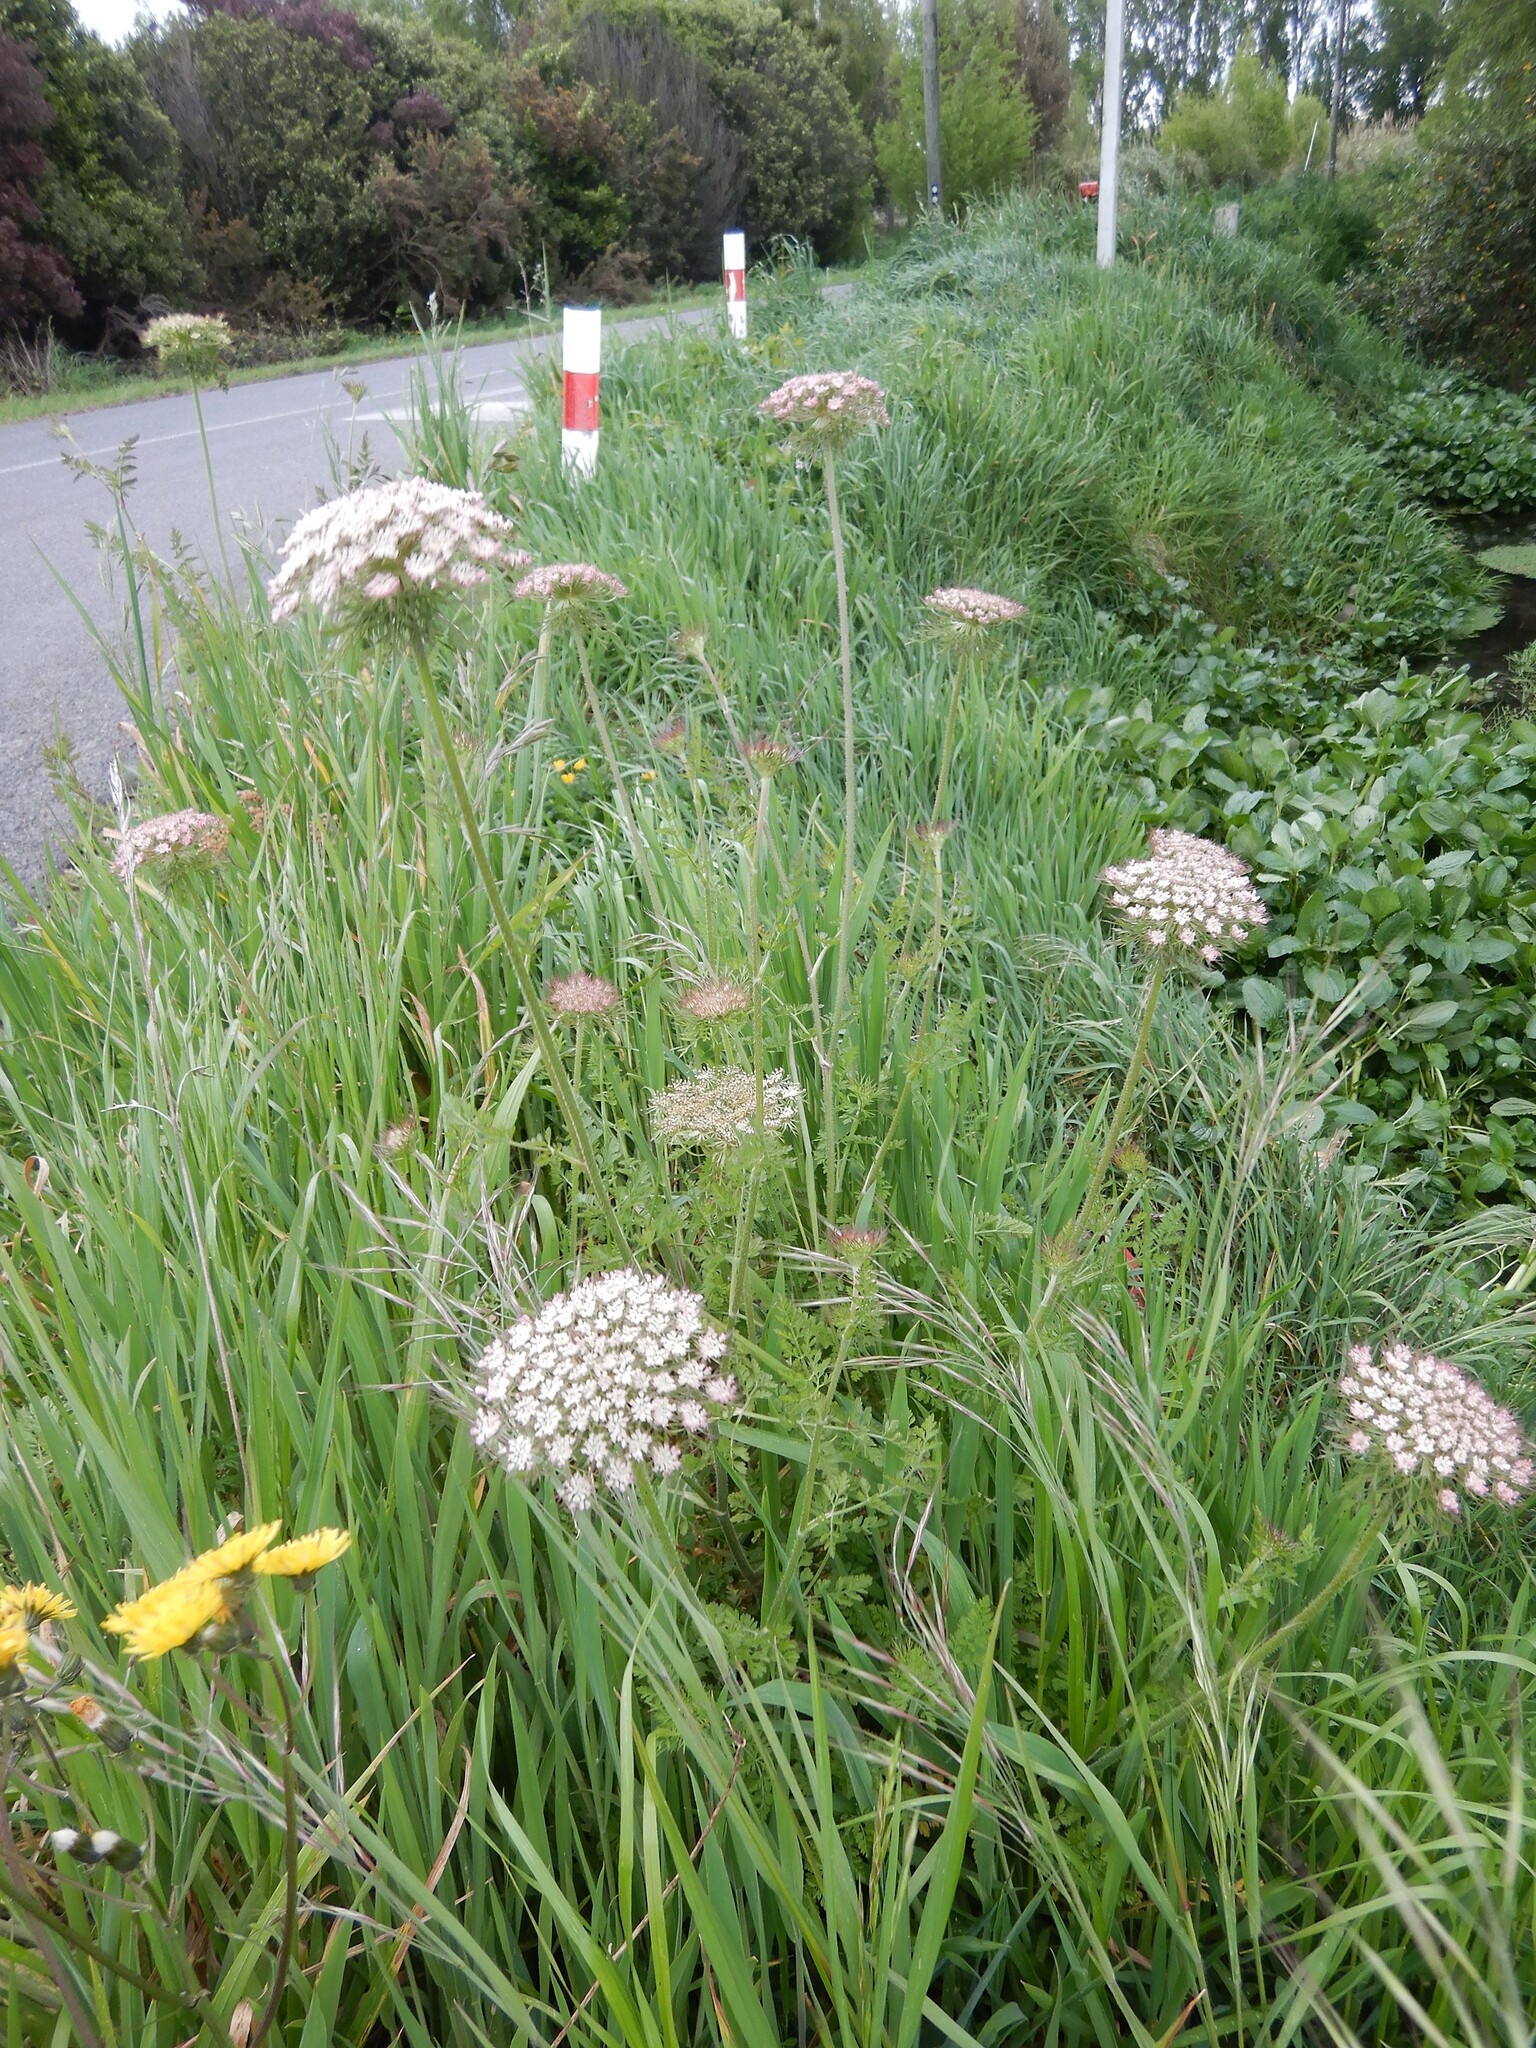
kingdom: Plantae
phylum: Tracheophyta
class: Magnoliopsida
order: Apiales
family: Apiaceae
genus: Daucus
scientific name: Daucus carota
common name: Wild carrot
